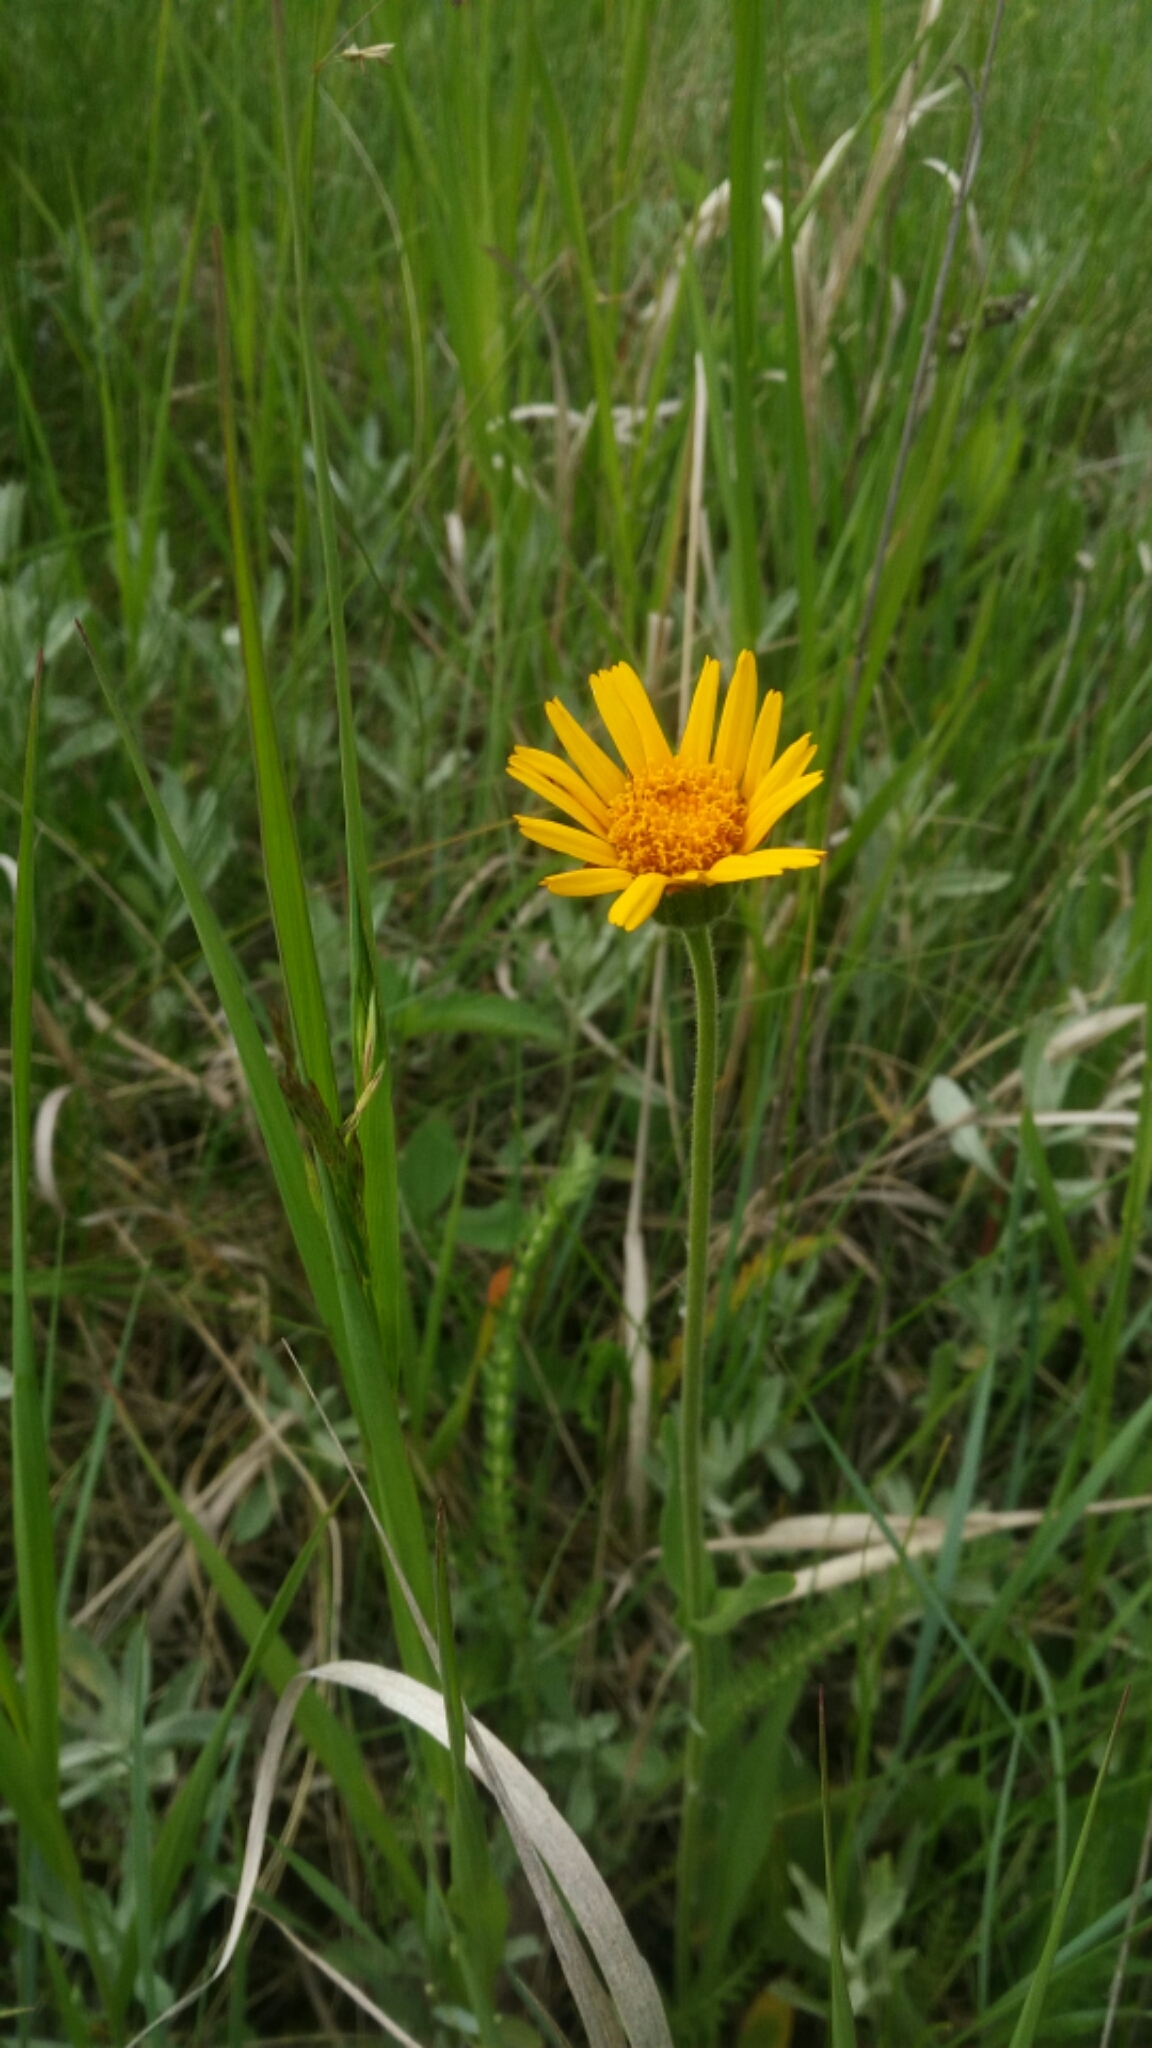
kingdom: Plantae
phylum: Tracheophyta
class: Magnoliopsida
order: Asterales
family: Asteraceae
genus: Arnica
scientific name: Arnica fulgens
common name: Foothill arnica
